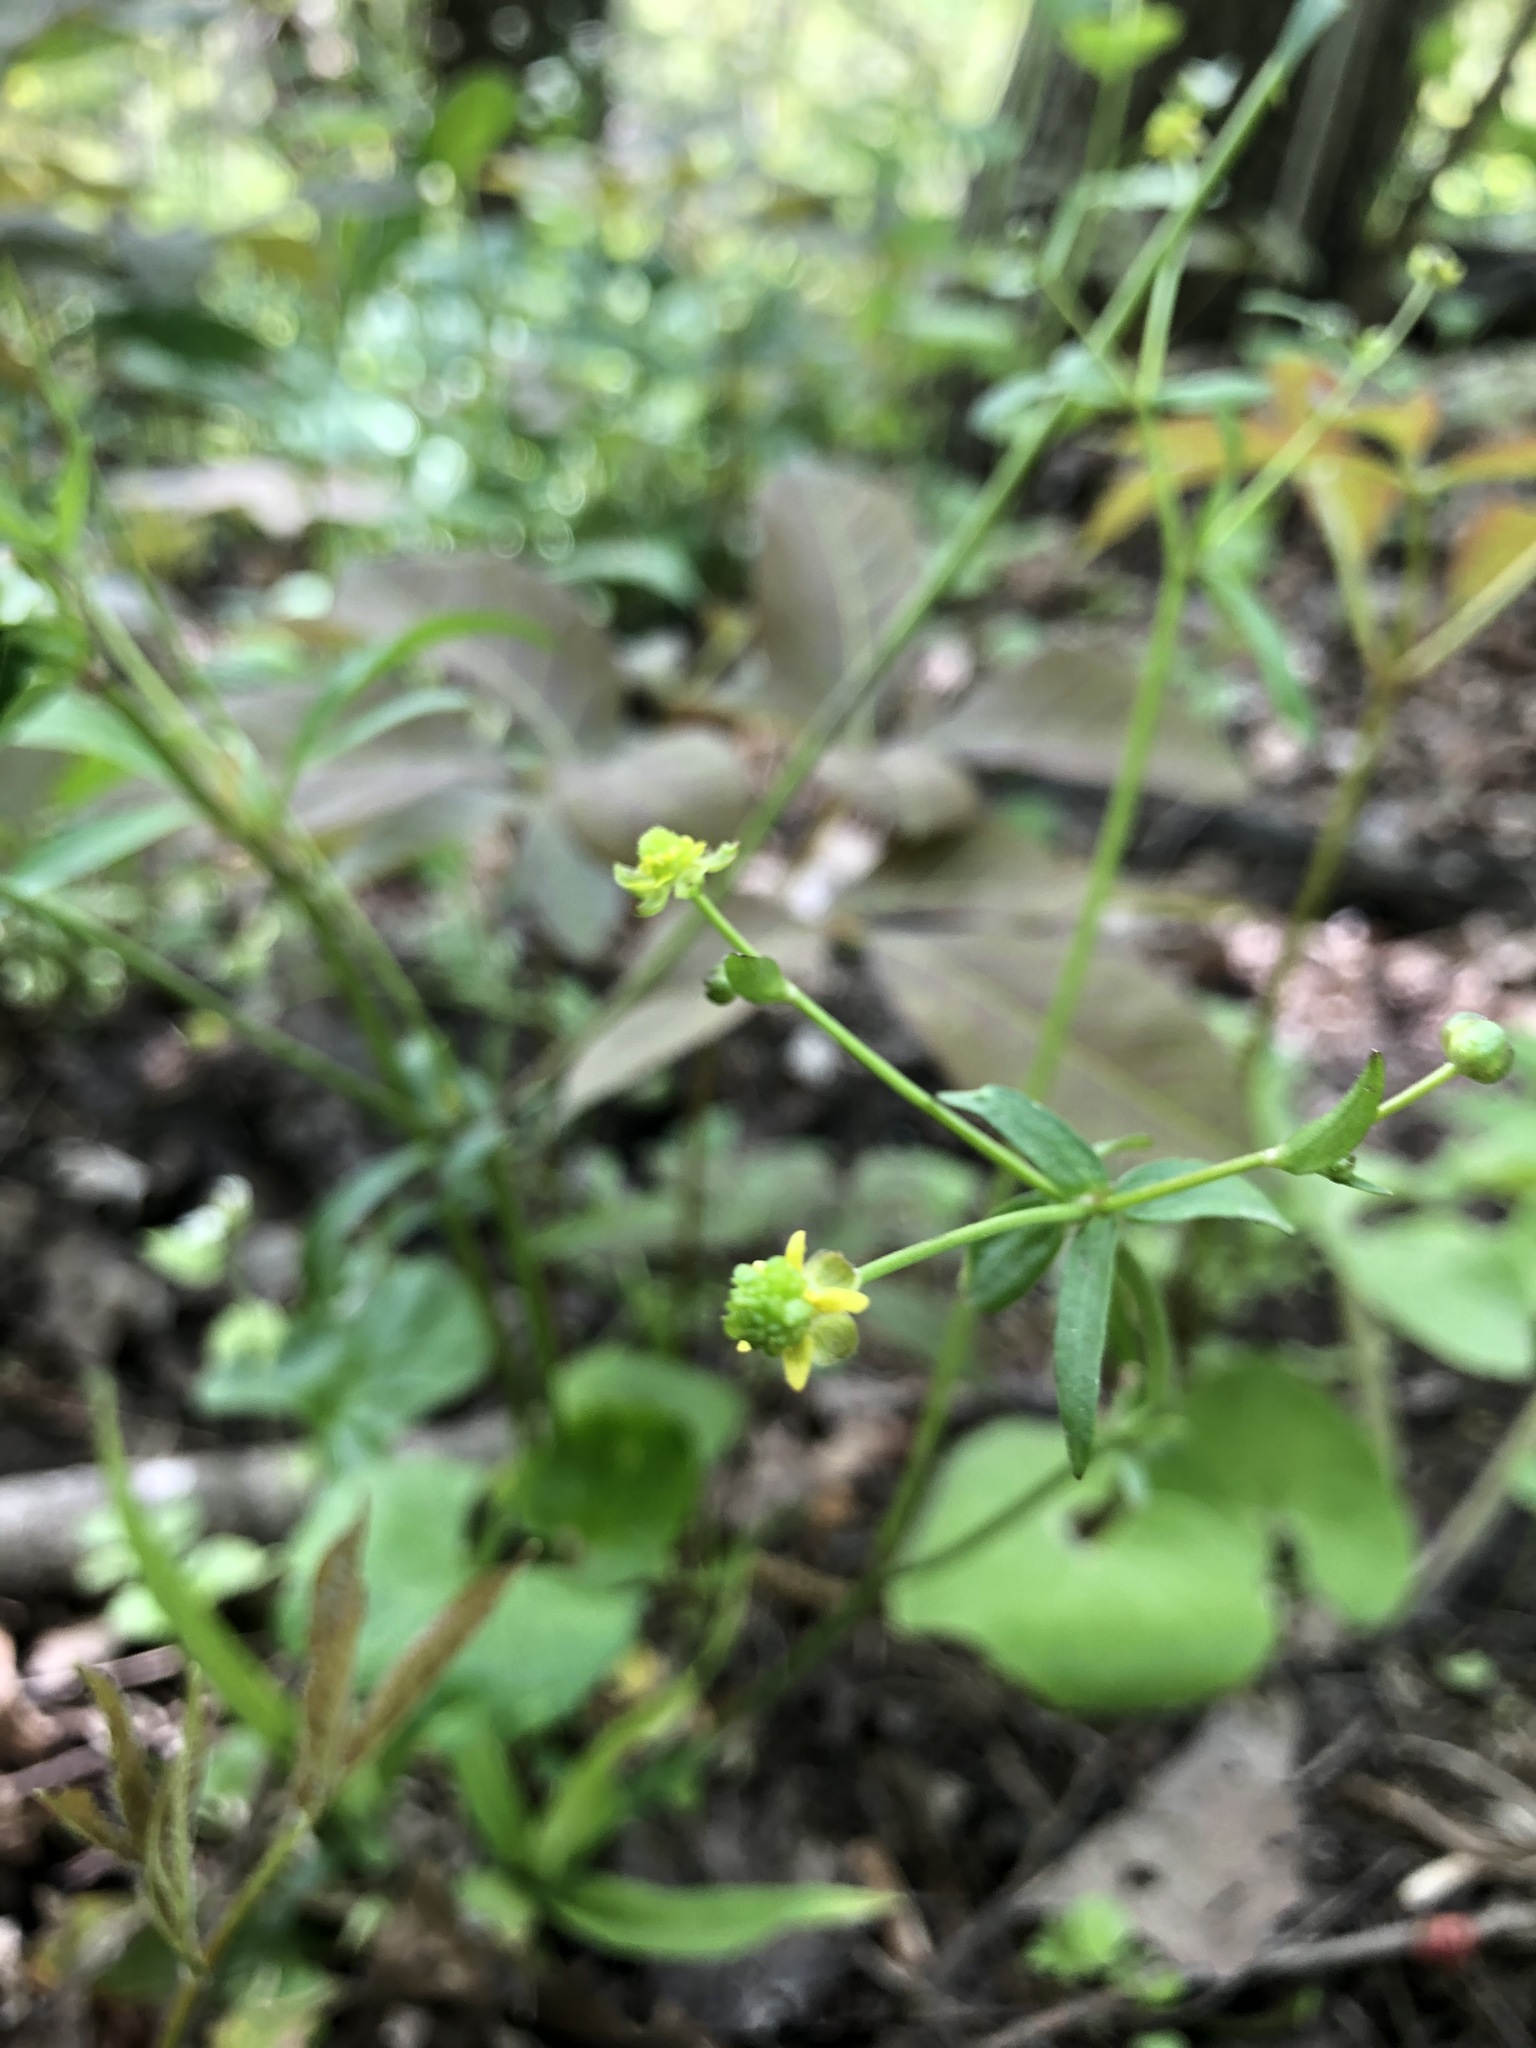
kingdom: Plantae
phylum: Tracheophyta
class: Magnoliopsida
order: Ranunculales
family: Ranunculaceae
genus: Ranunculus
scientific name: Ranunculus abortivus
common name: Early wood buttercup
